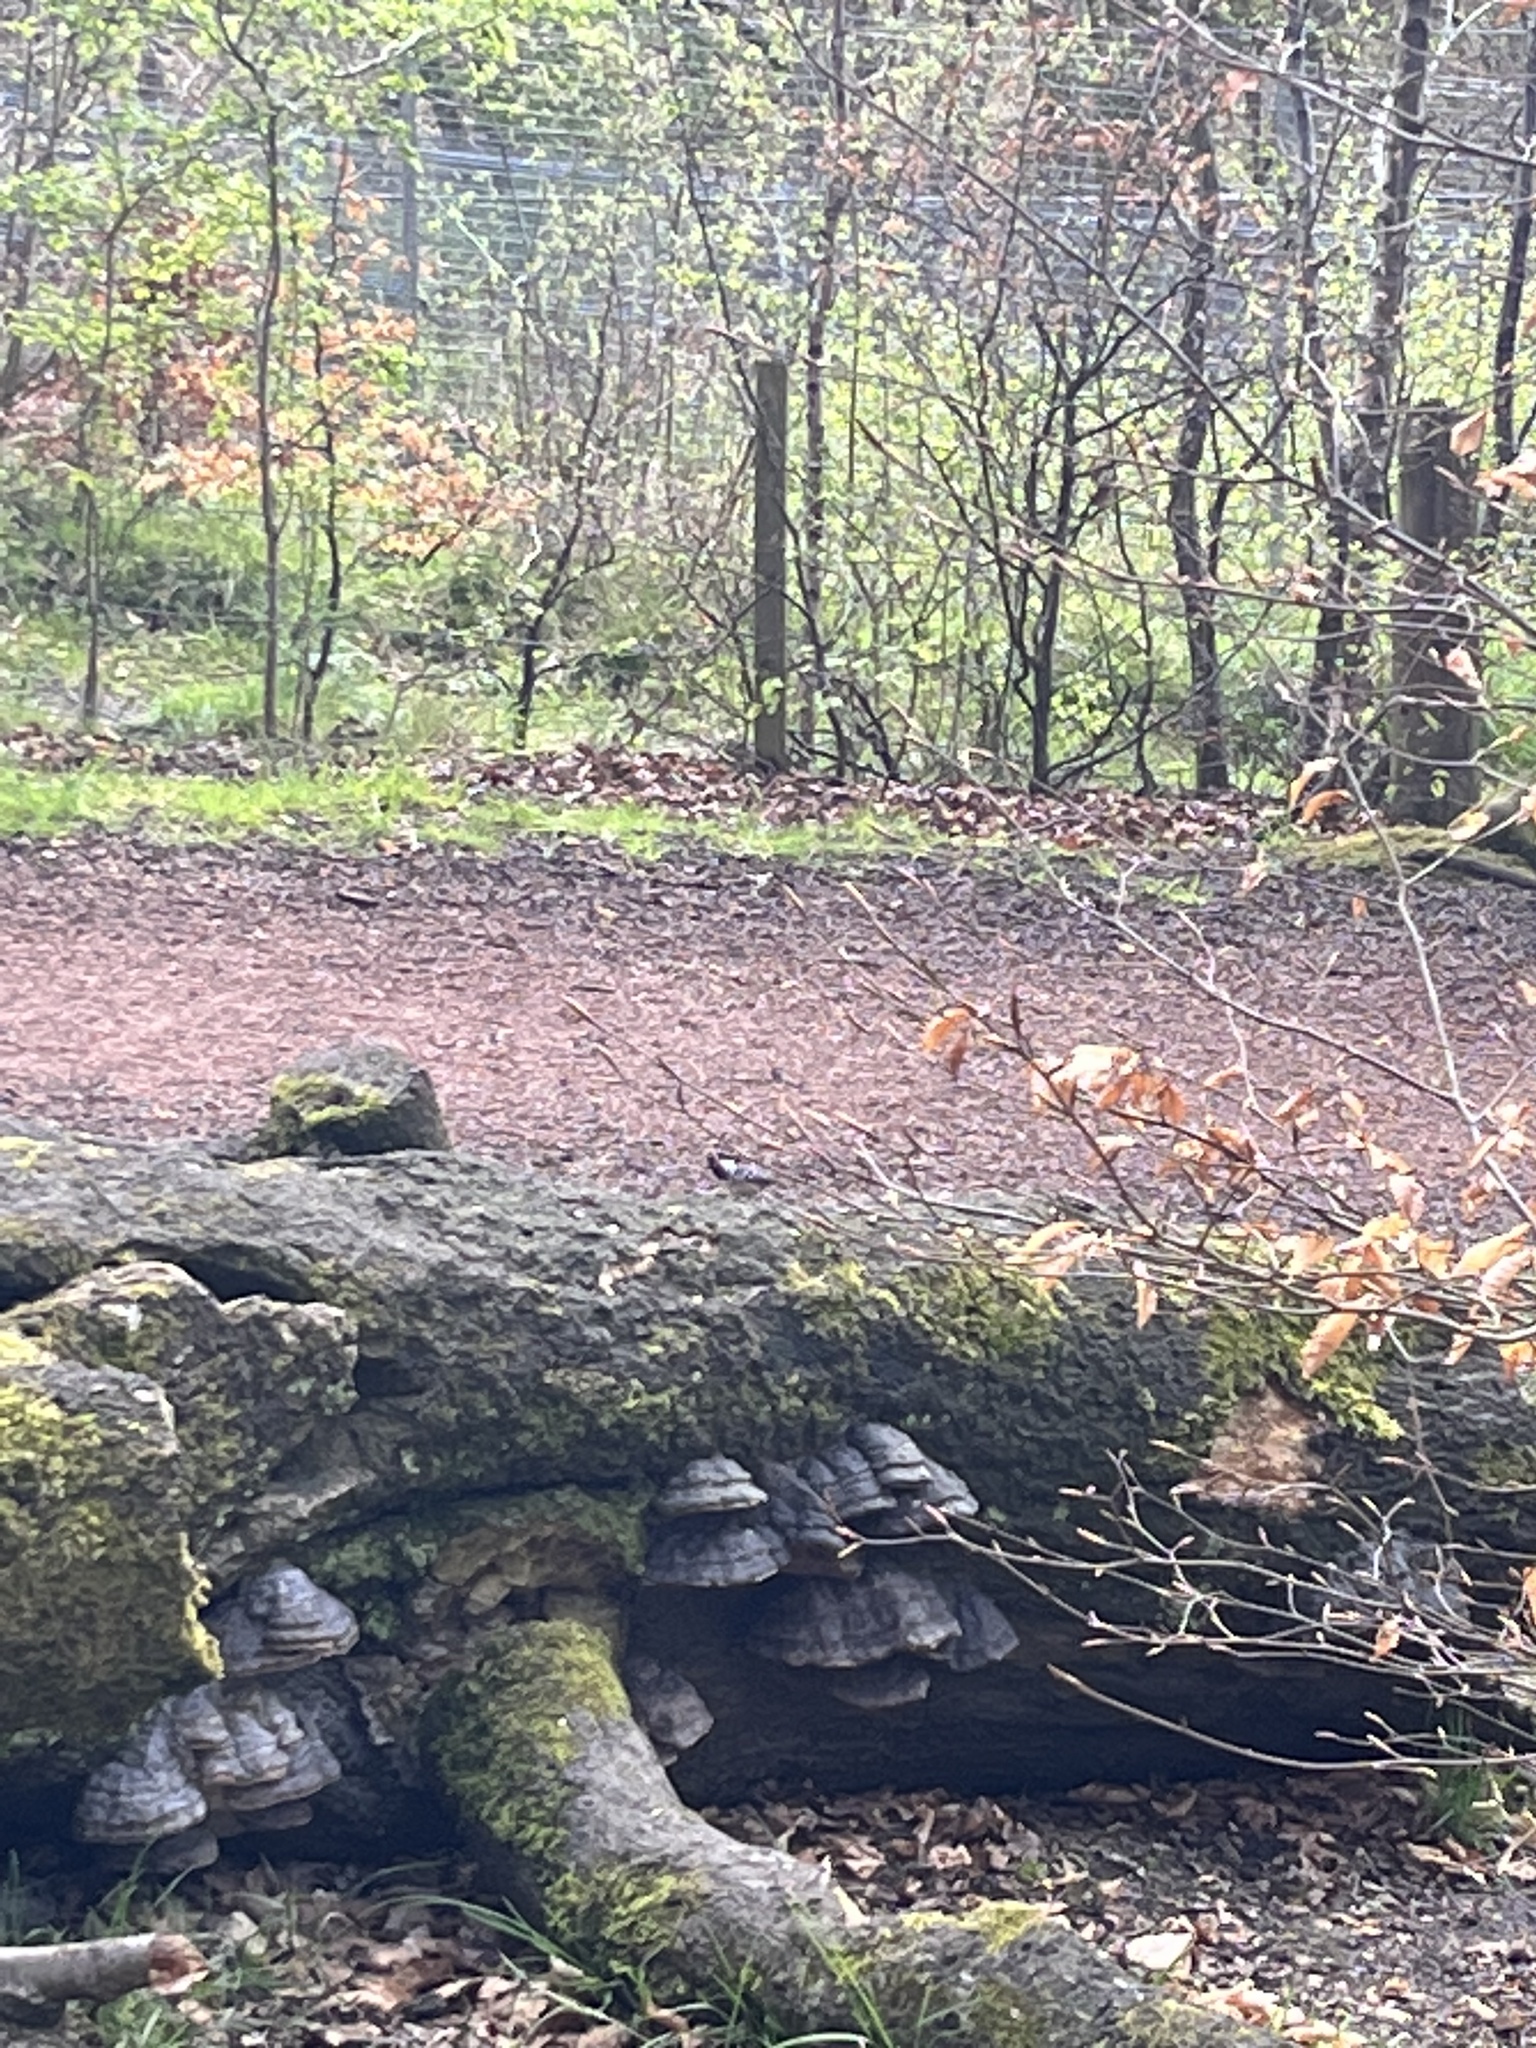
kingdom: Animalia
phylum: Chordata
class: Aves
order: Passeriformes
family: Paridae
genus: Periparus
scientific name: Periparus ater
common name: Coal tit
